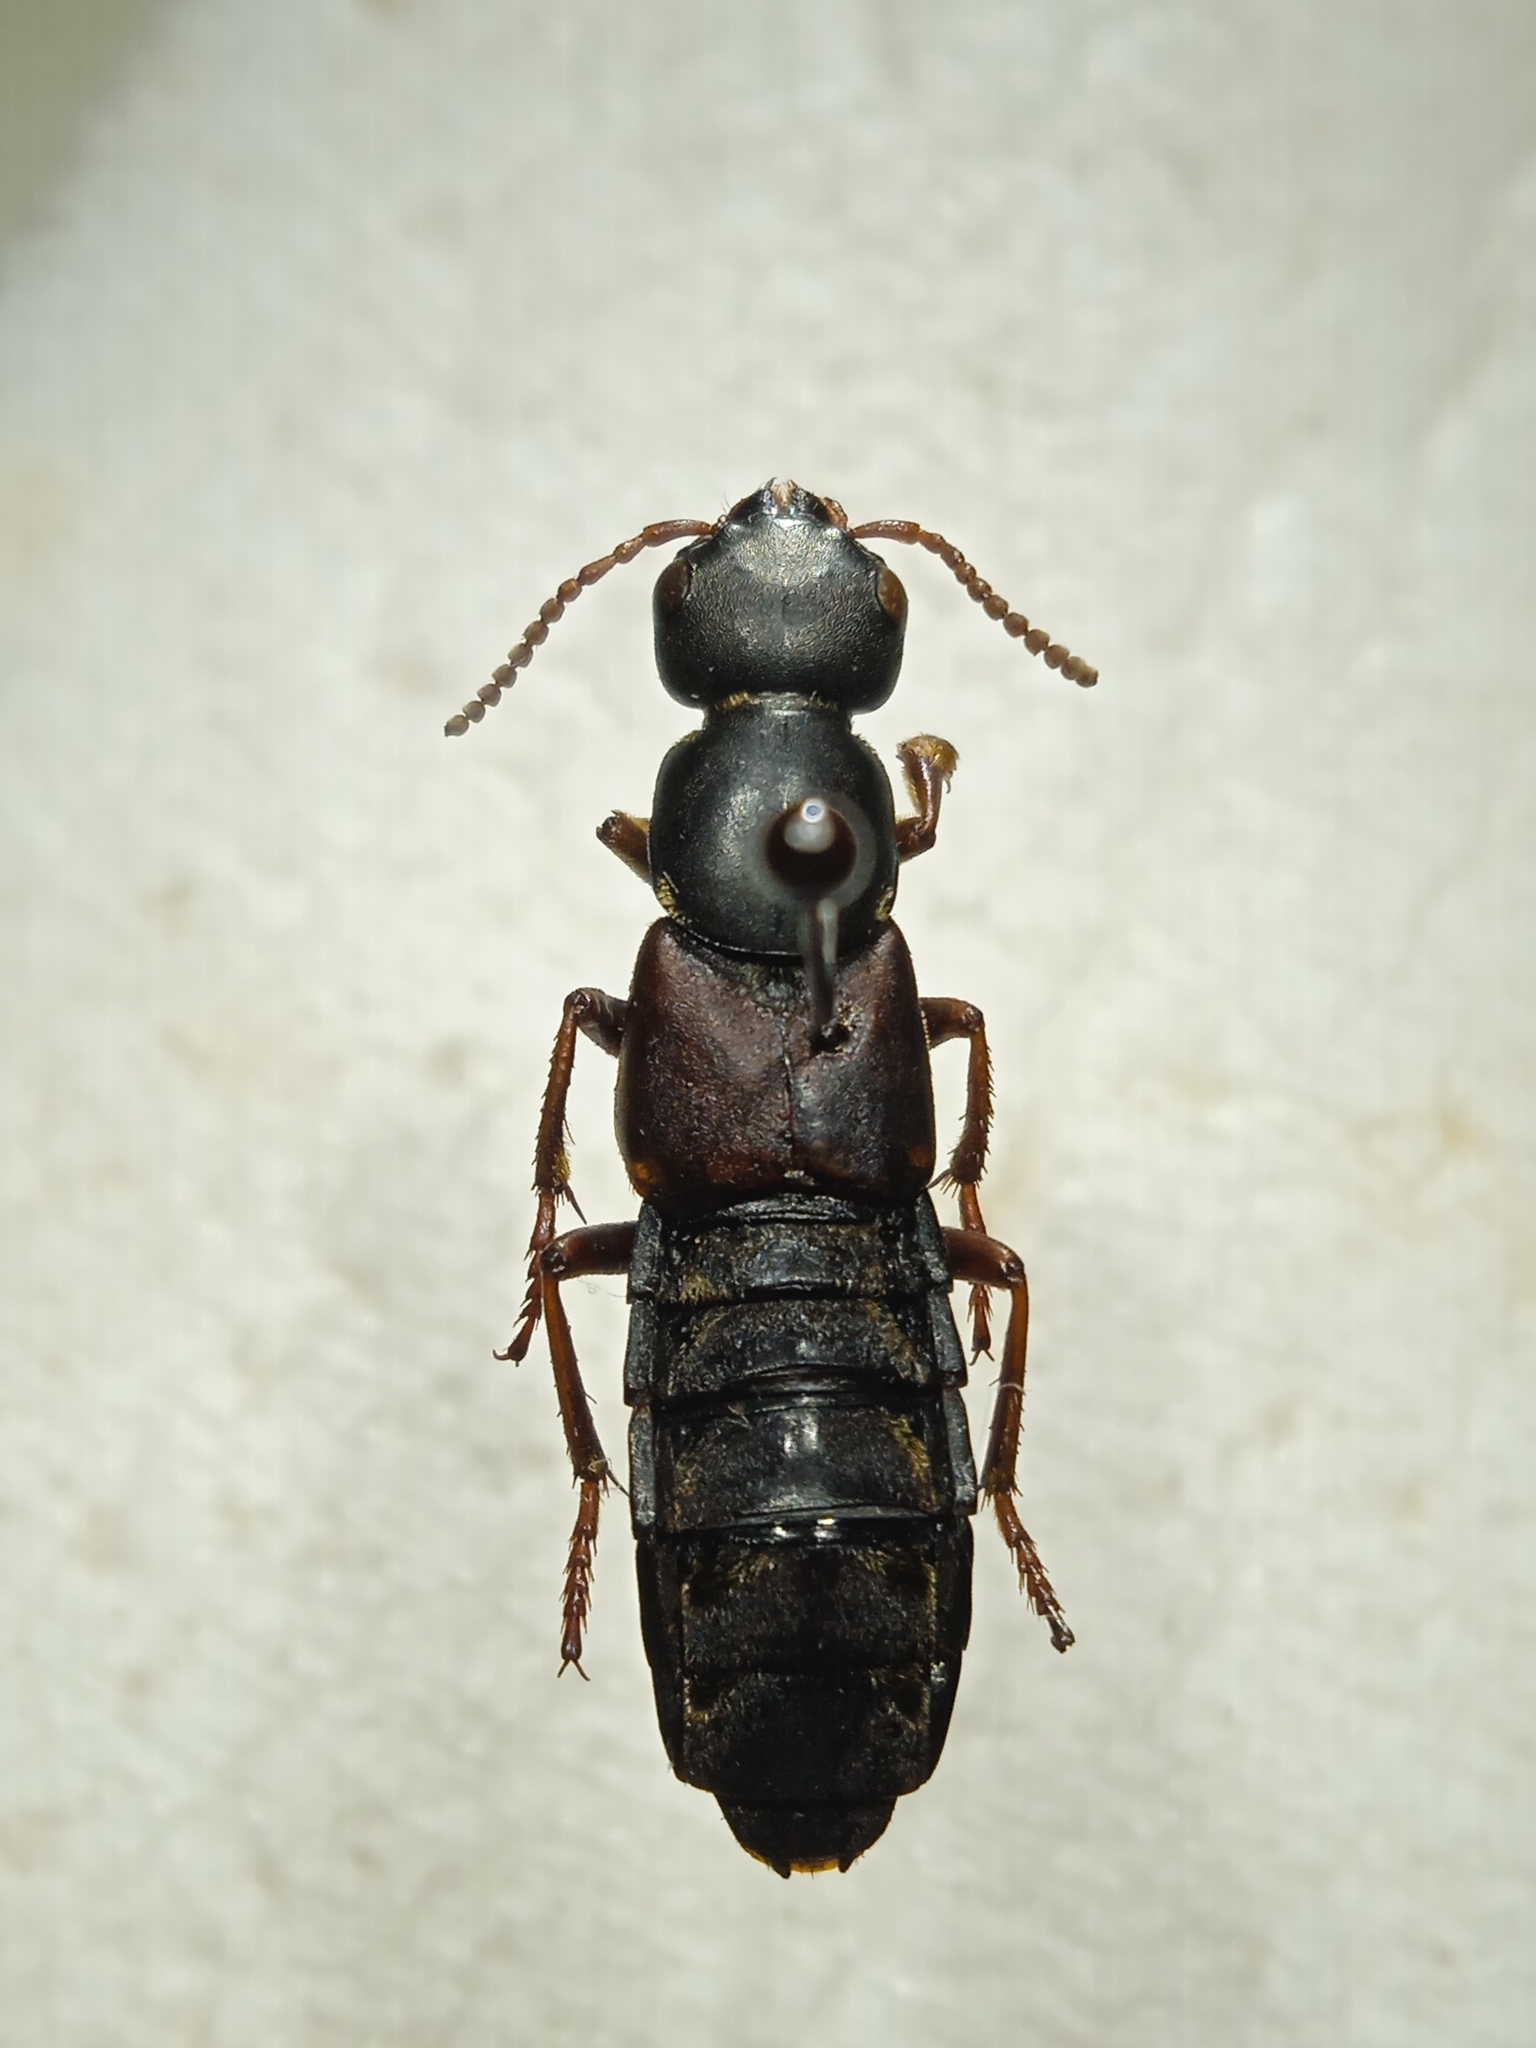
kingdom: Animalia
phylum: Arthropoda
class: Insecta
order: Coleoptera
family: Staphylinidae
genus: Staphylinus
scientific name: Staphylinus caesareus
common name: Staph beetle
